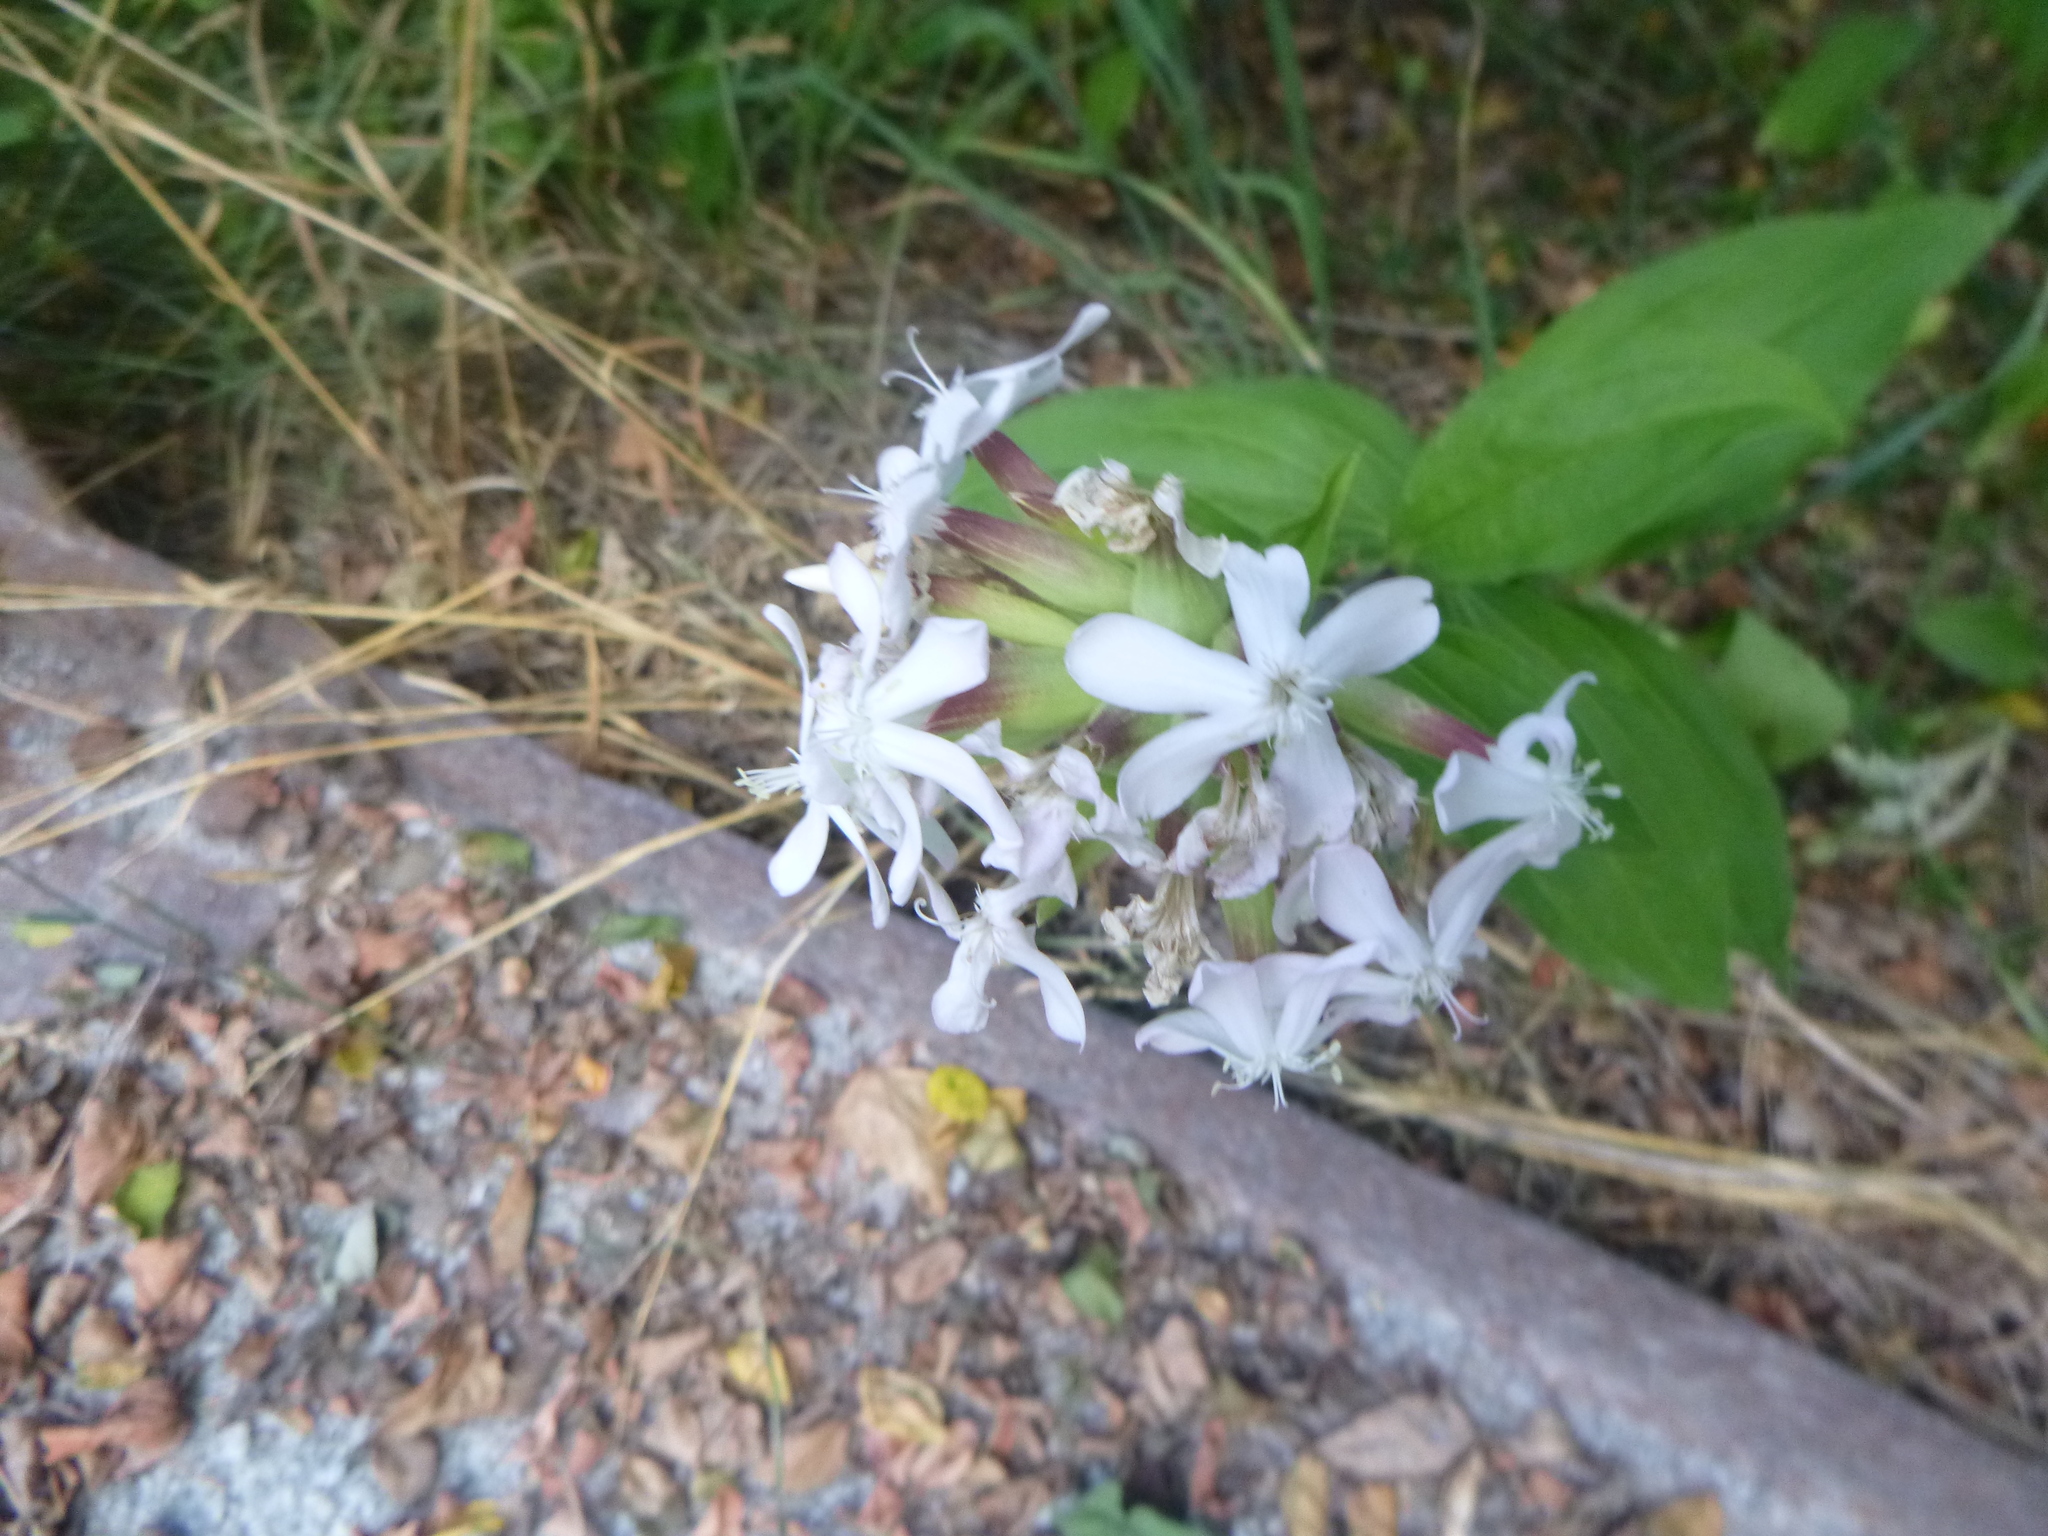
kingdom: Plantae
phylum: Tracheophyta
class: Magnoliopsida
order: Caryophyllales
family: Caryophyllaceae
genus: Saponaria
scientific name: Saponaria officinalis
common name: Soapwort
